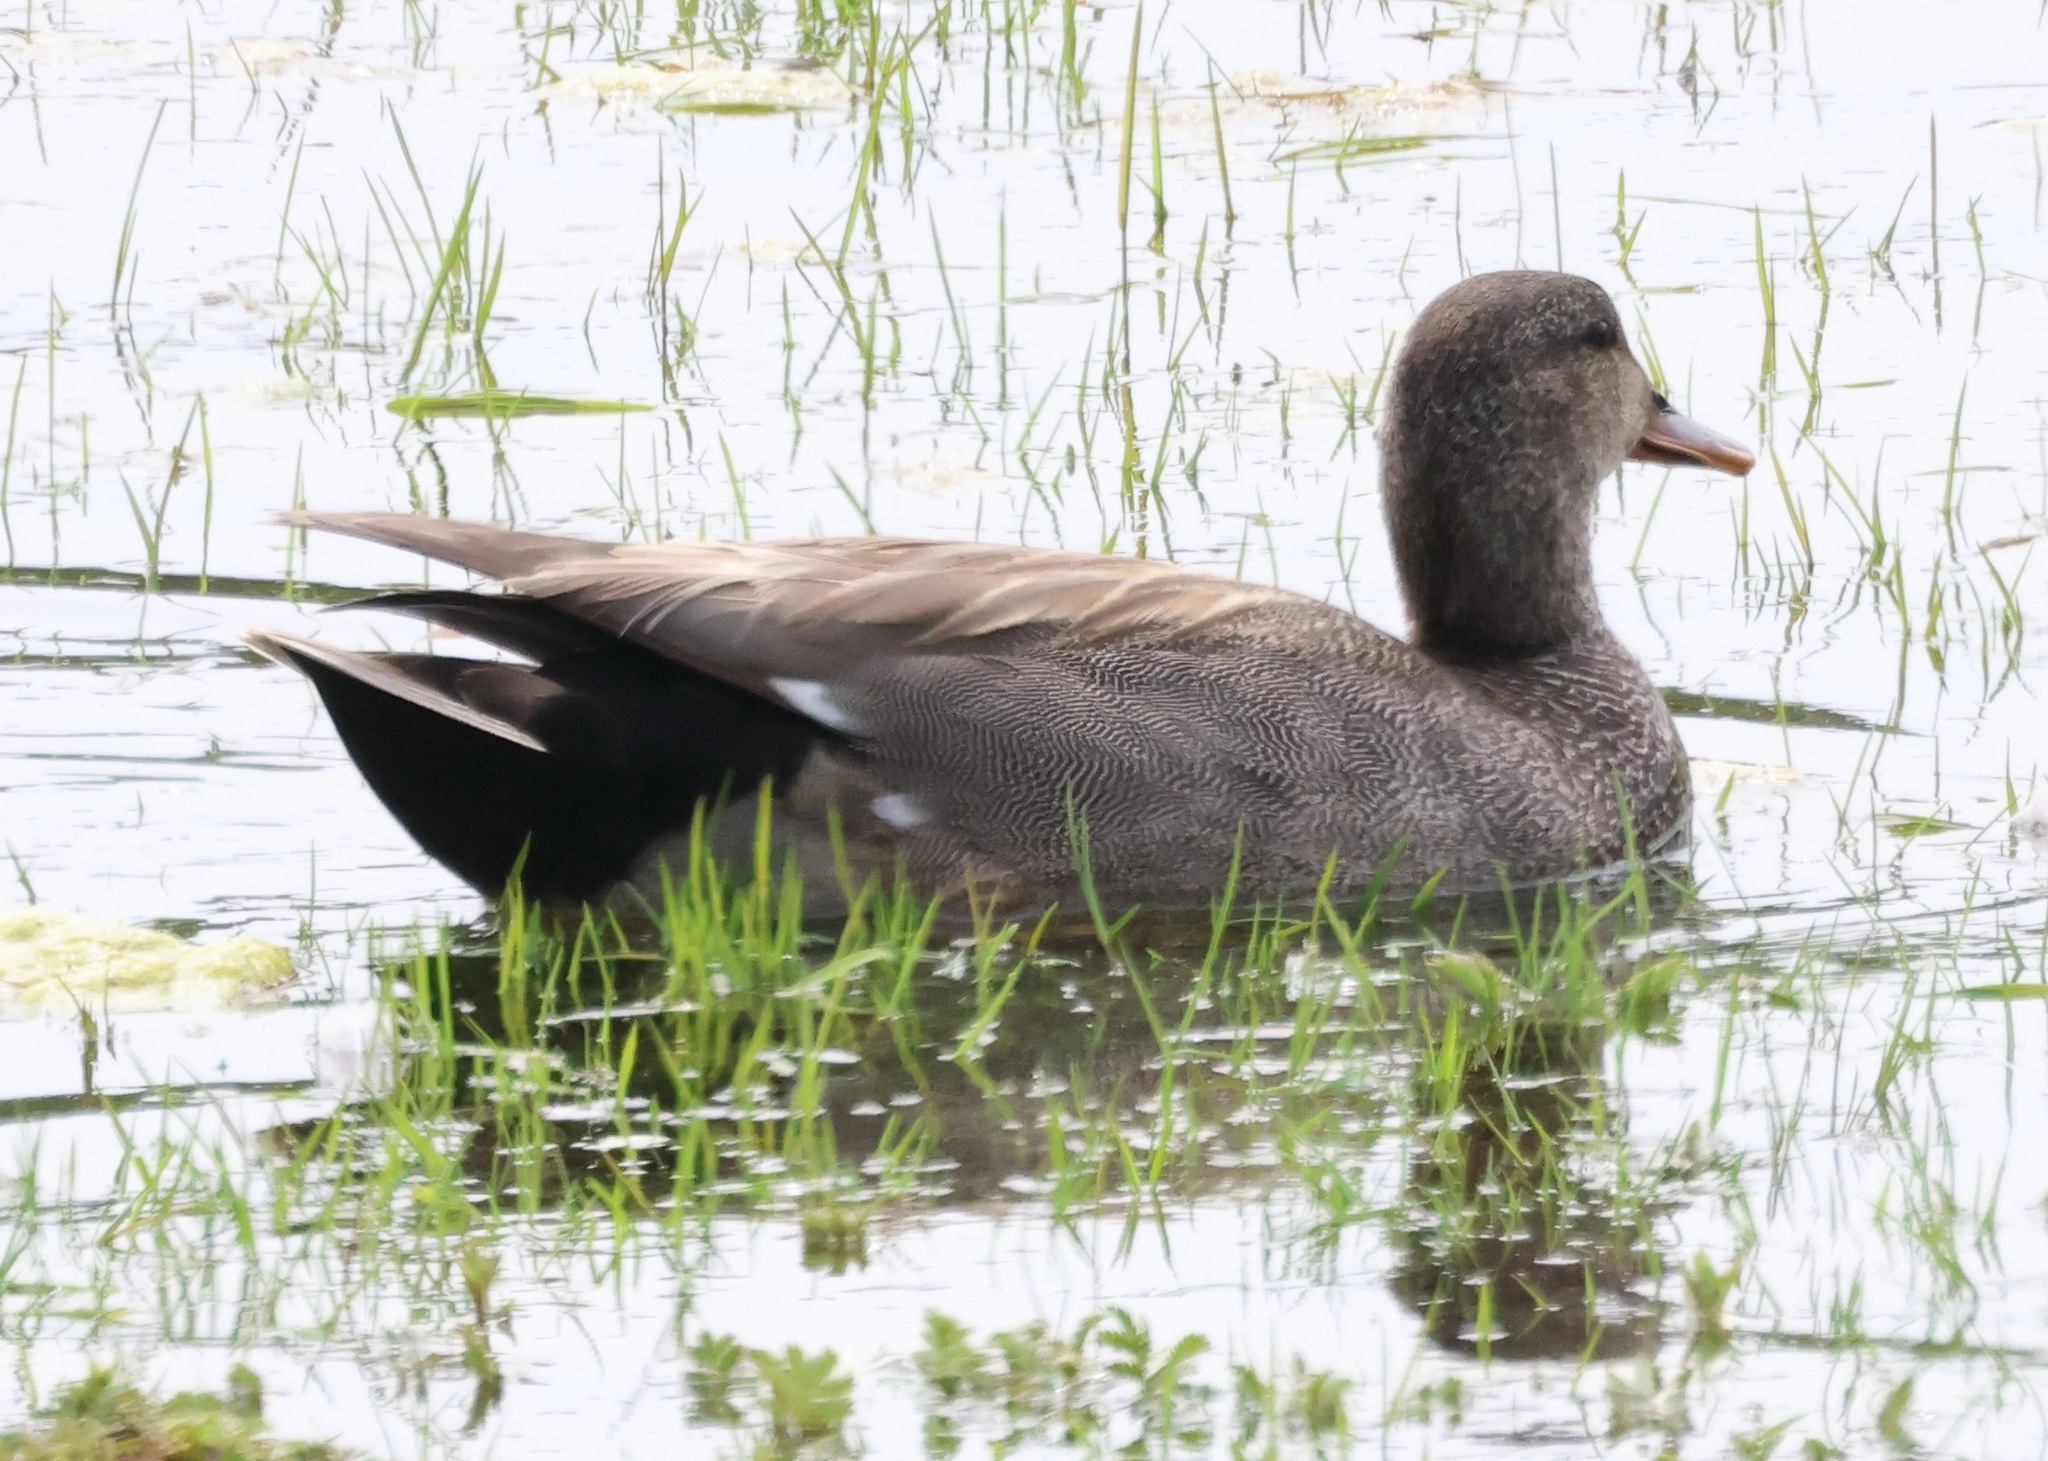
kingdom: Animalia
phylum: Chordata
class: Aves
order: Anseriformes
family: Anatidae
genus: Mareca
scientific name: Mareca strepera
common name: Gadwall
